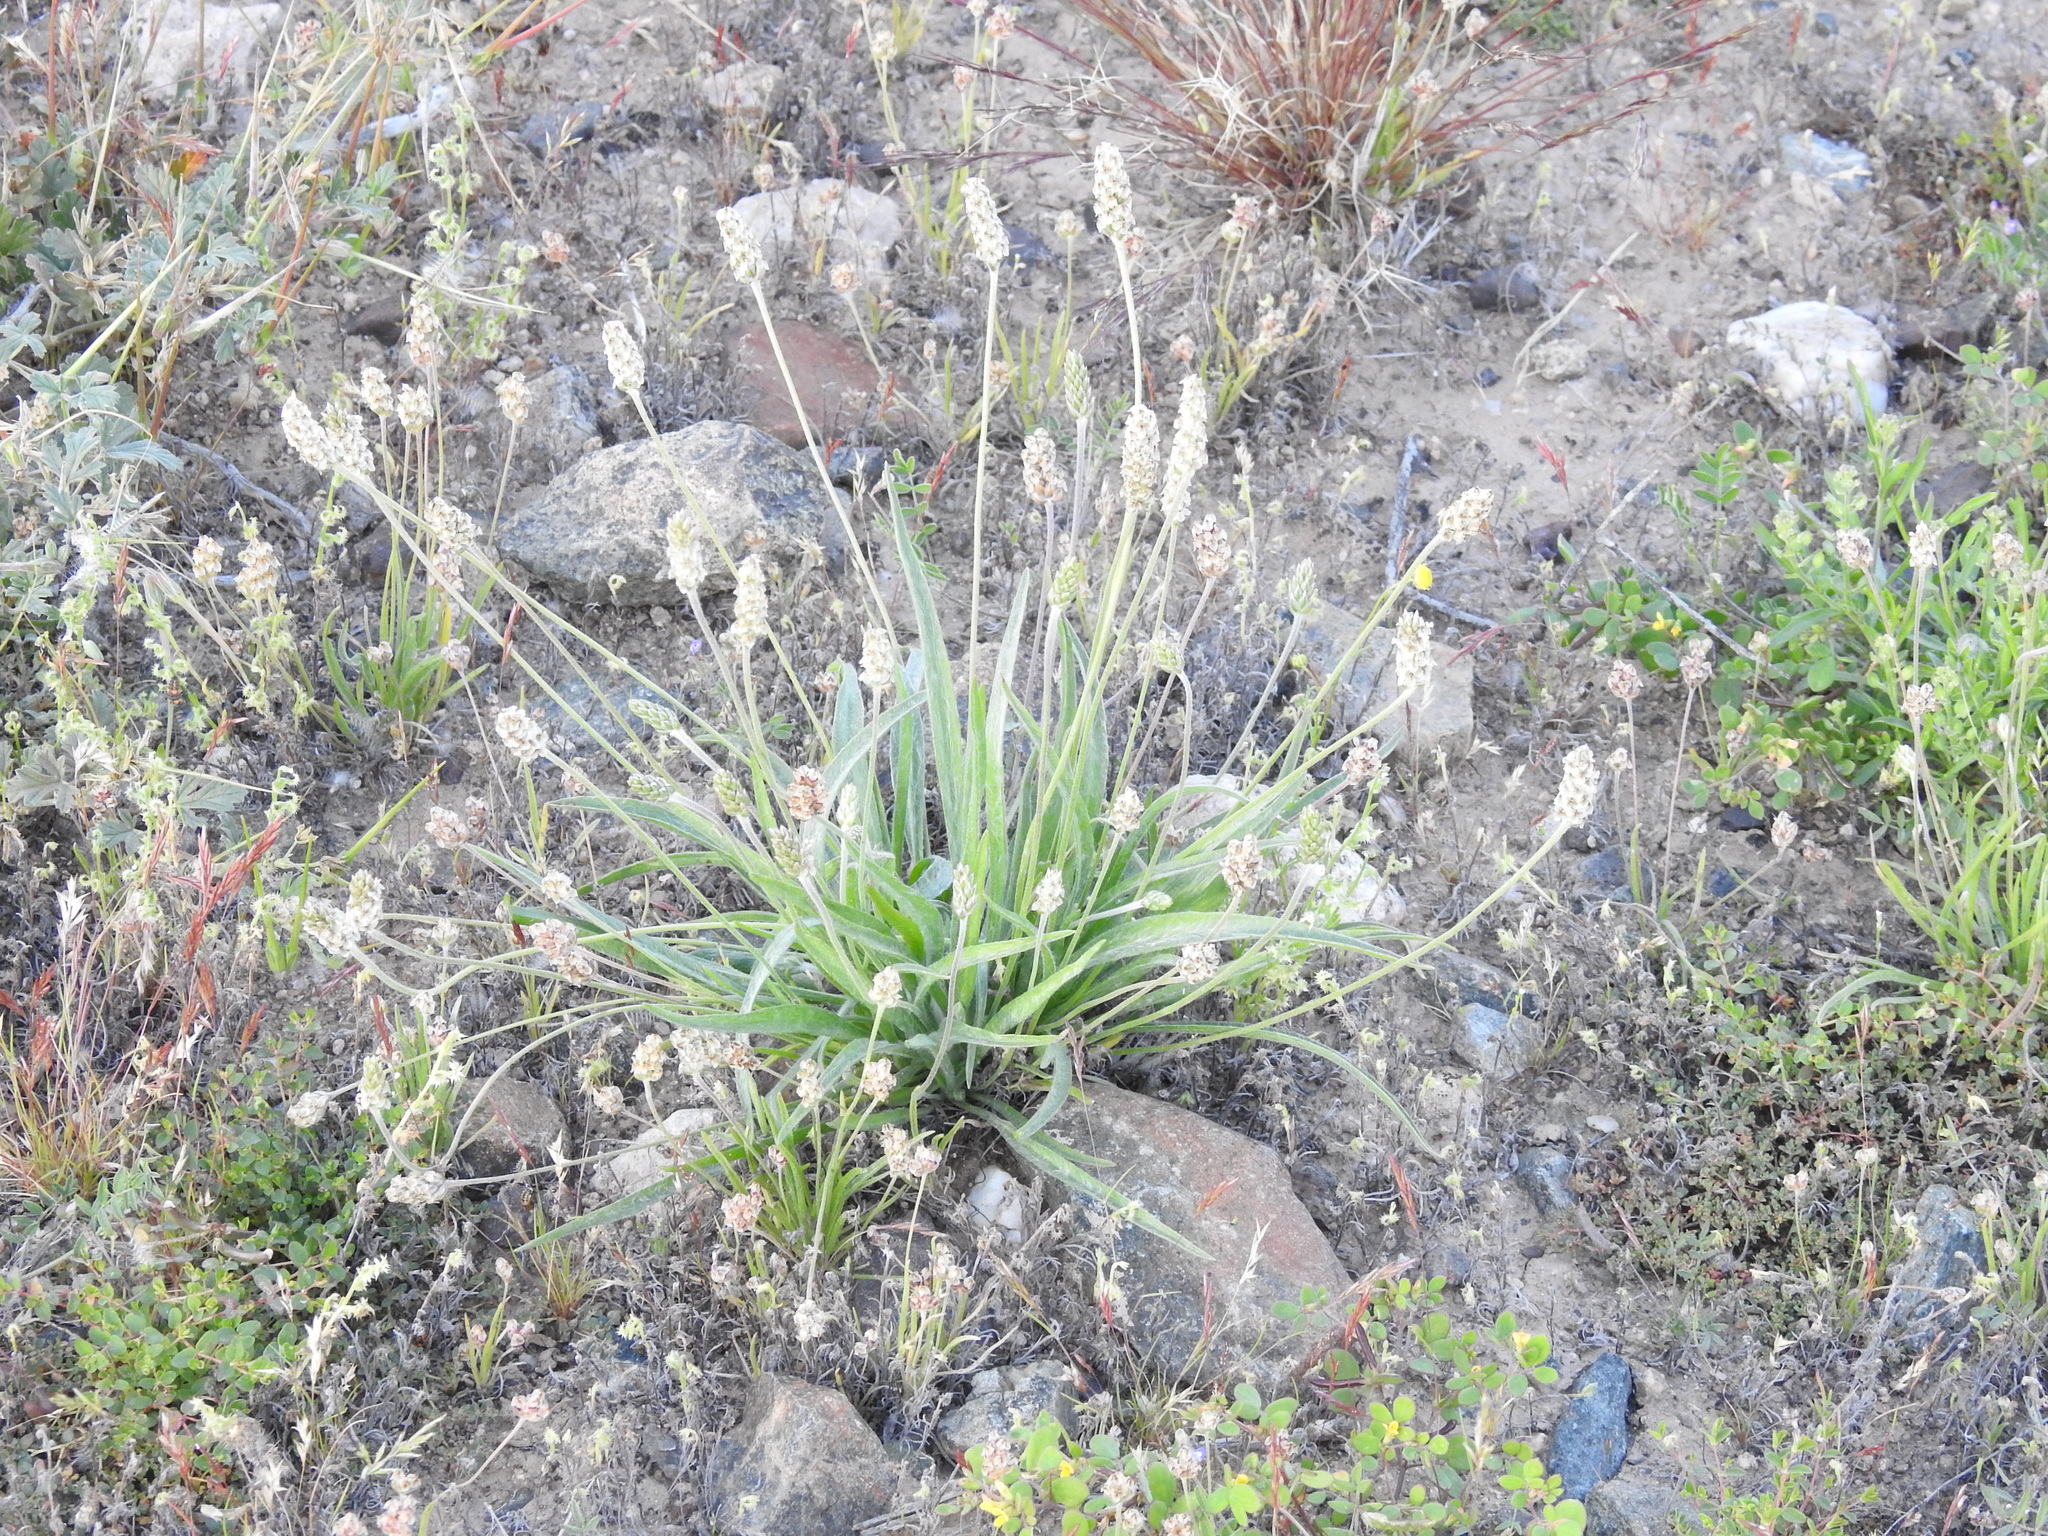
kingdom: Plantae
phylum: Tracheophyta
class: Magnoliopsida
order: Lamiales
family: Plantaginaceae
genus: Plantago
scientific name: Plantago ovata
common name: Blond plantain
